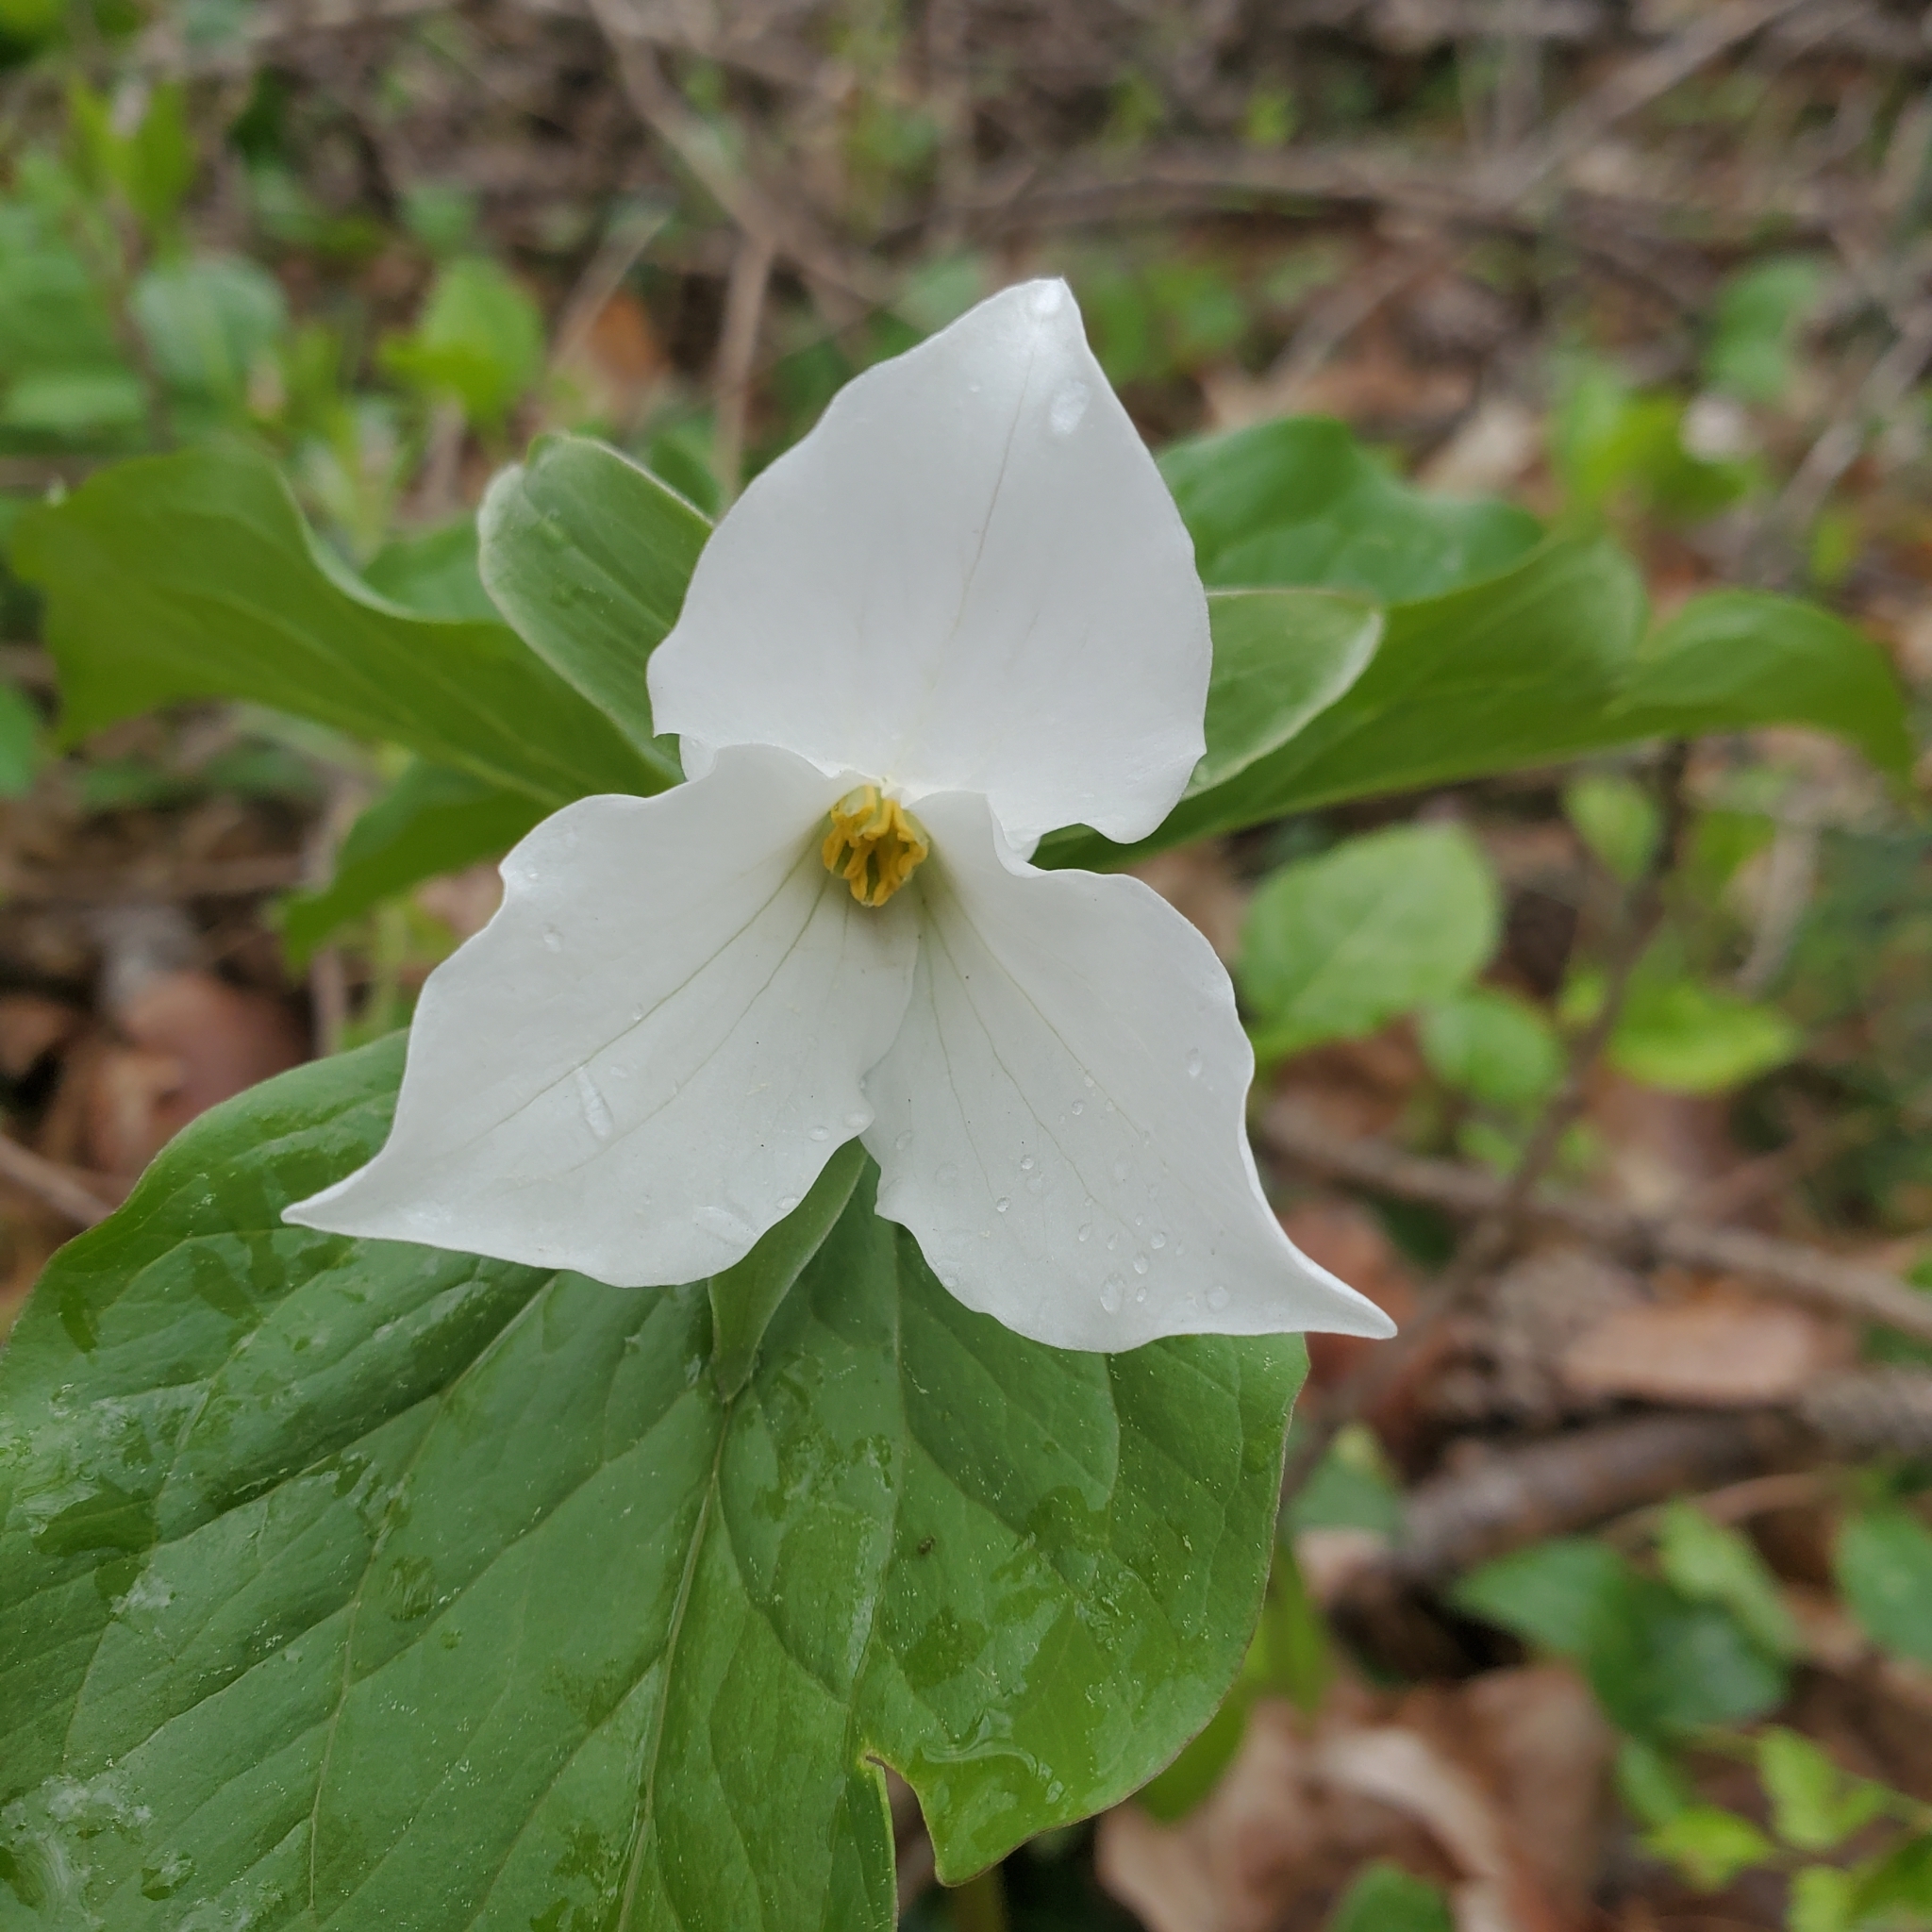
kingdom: Plantae
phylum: Tracheophyta
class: Liliopsida
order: Liliales
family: Melanthiaceae
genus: Trillium
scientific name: Trillium grandiflorum
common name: Great white trillium
